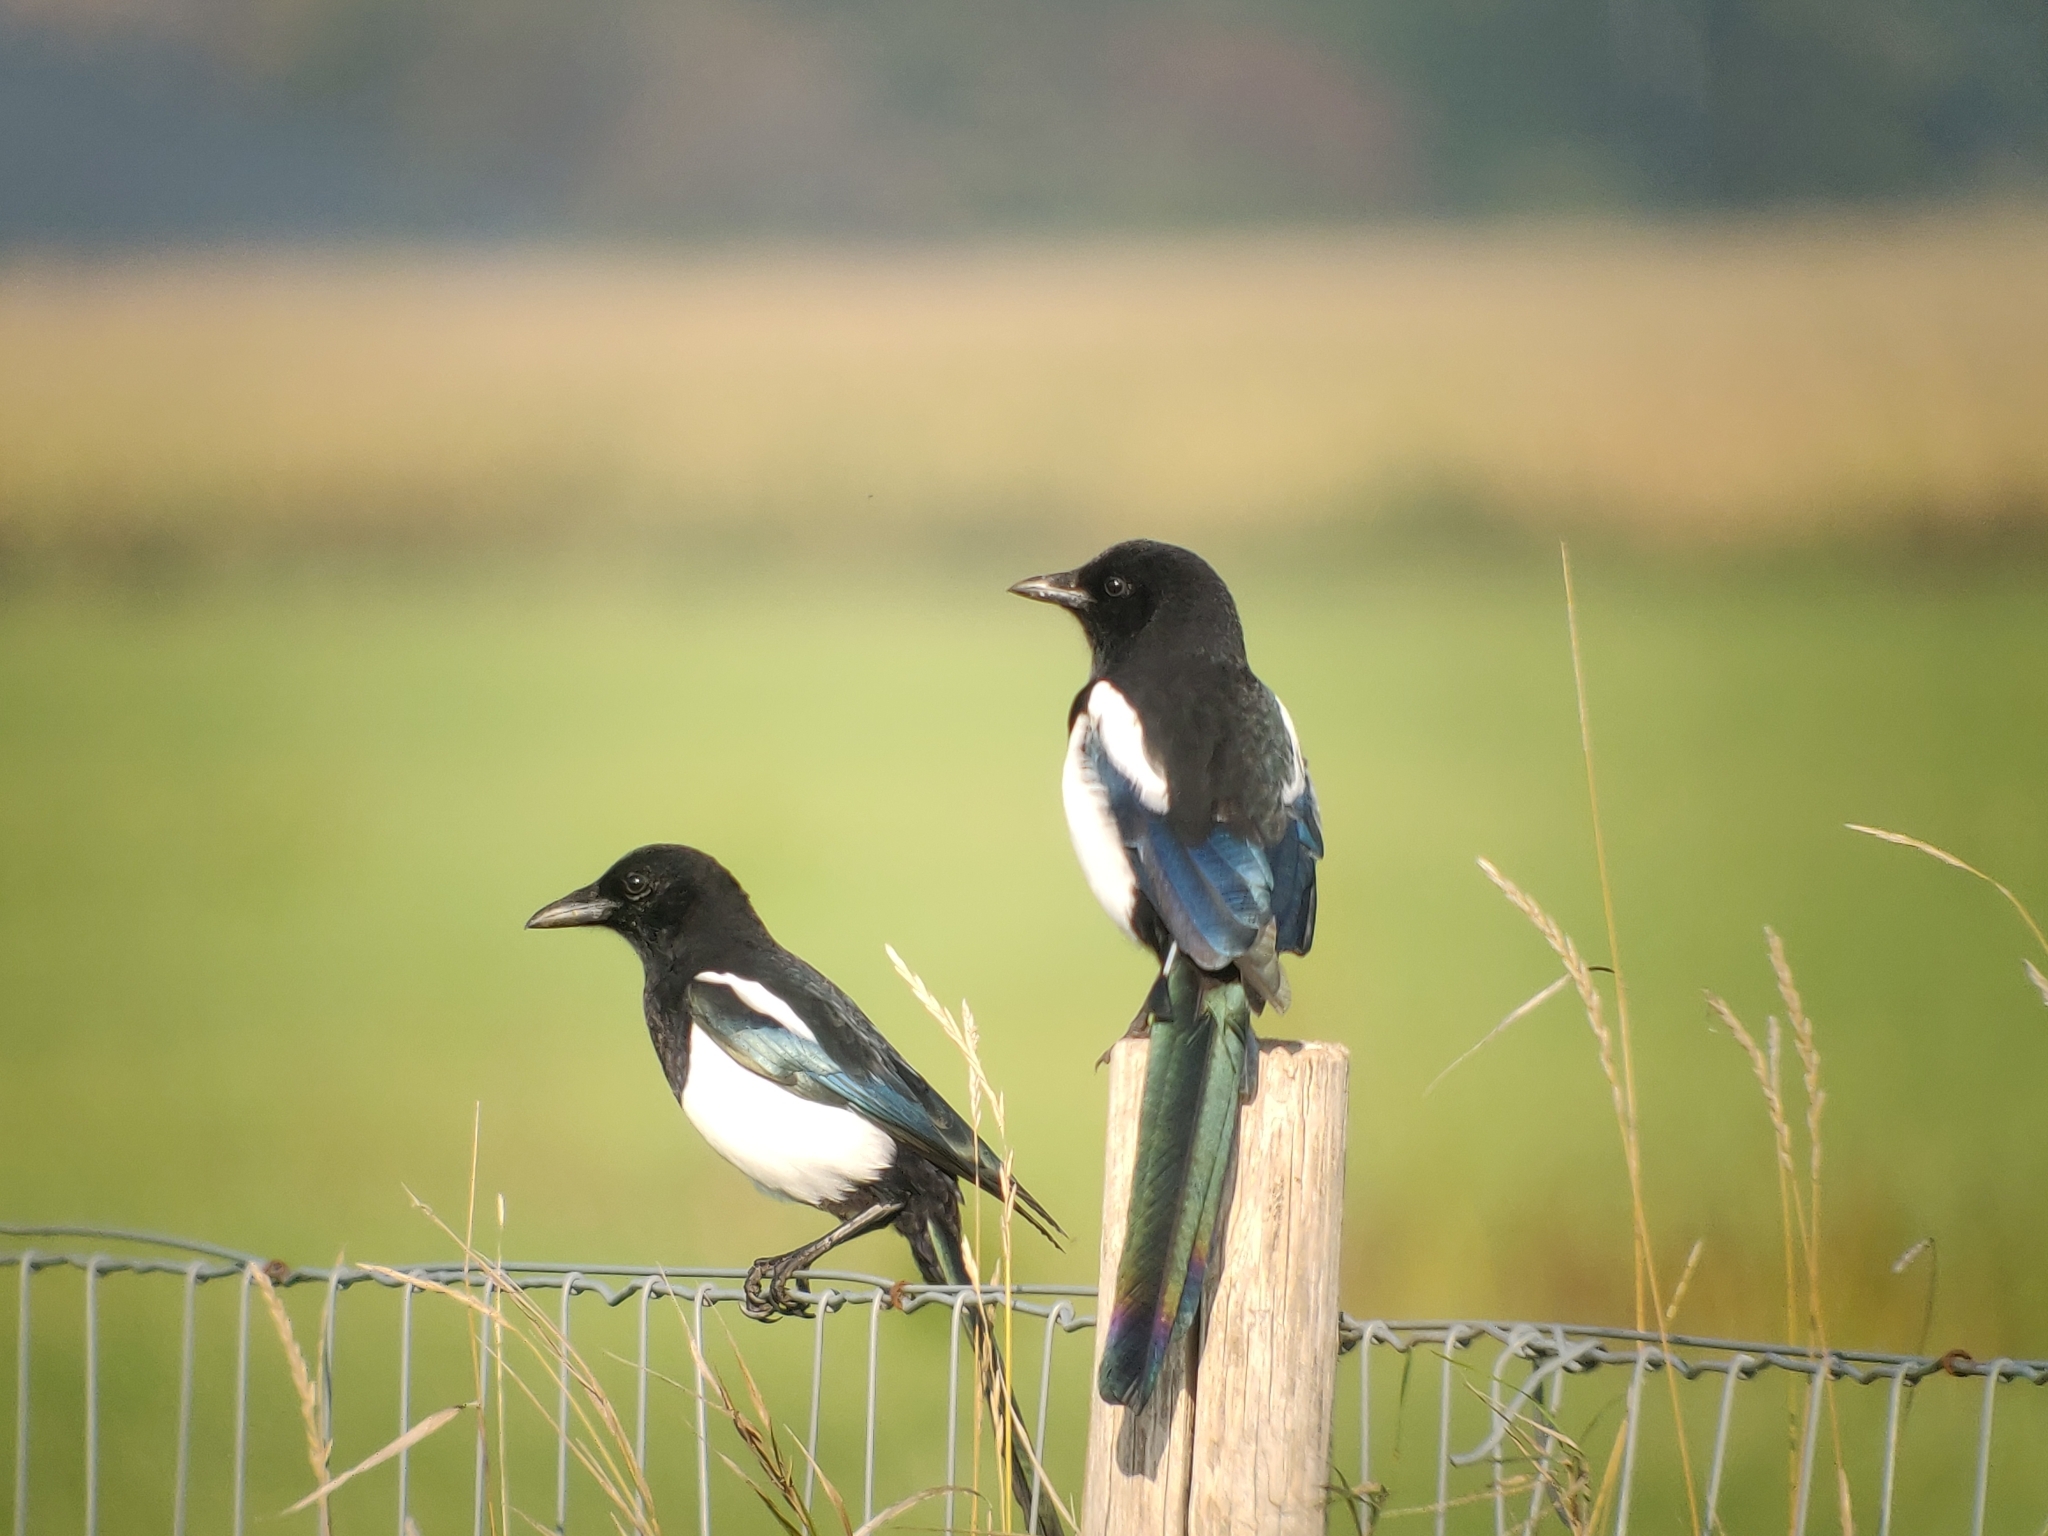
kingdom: Animalia
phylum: Chordata
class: Aves
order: Passeriformes
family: Corvidae
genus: Pica
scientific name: Pica pica
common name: Eurasian magpie
